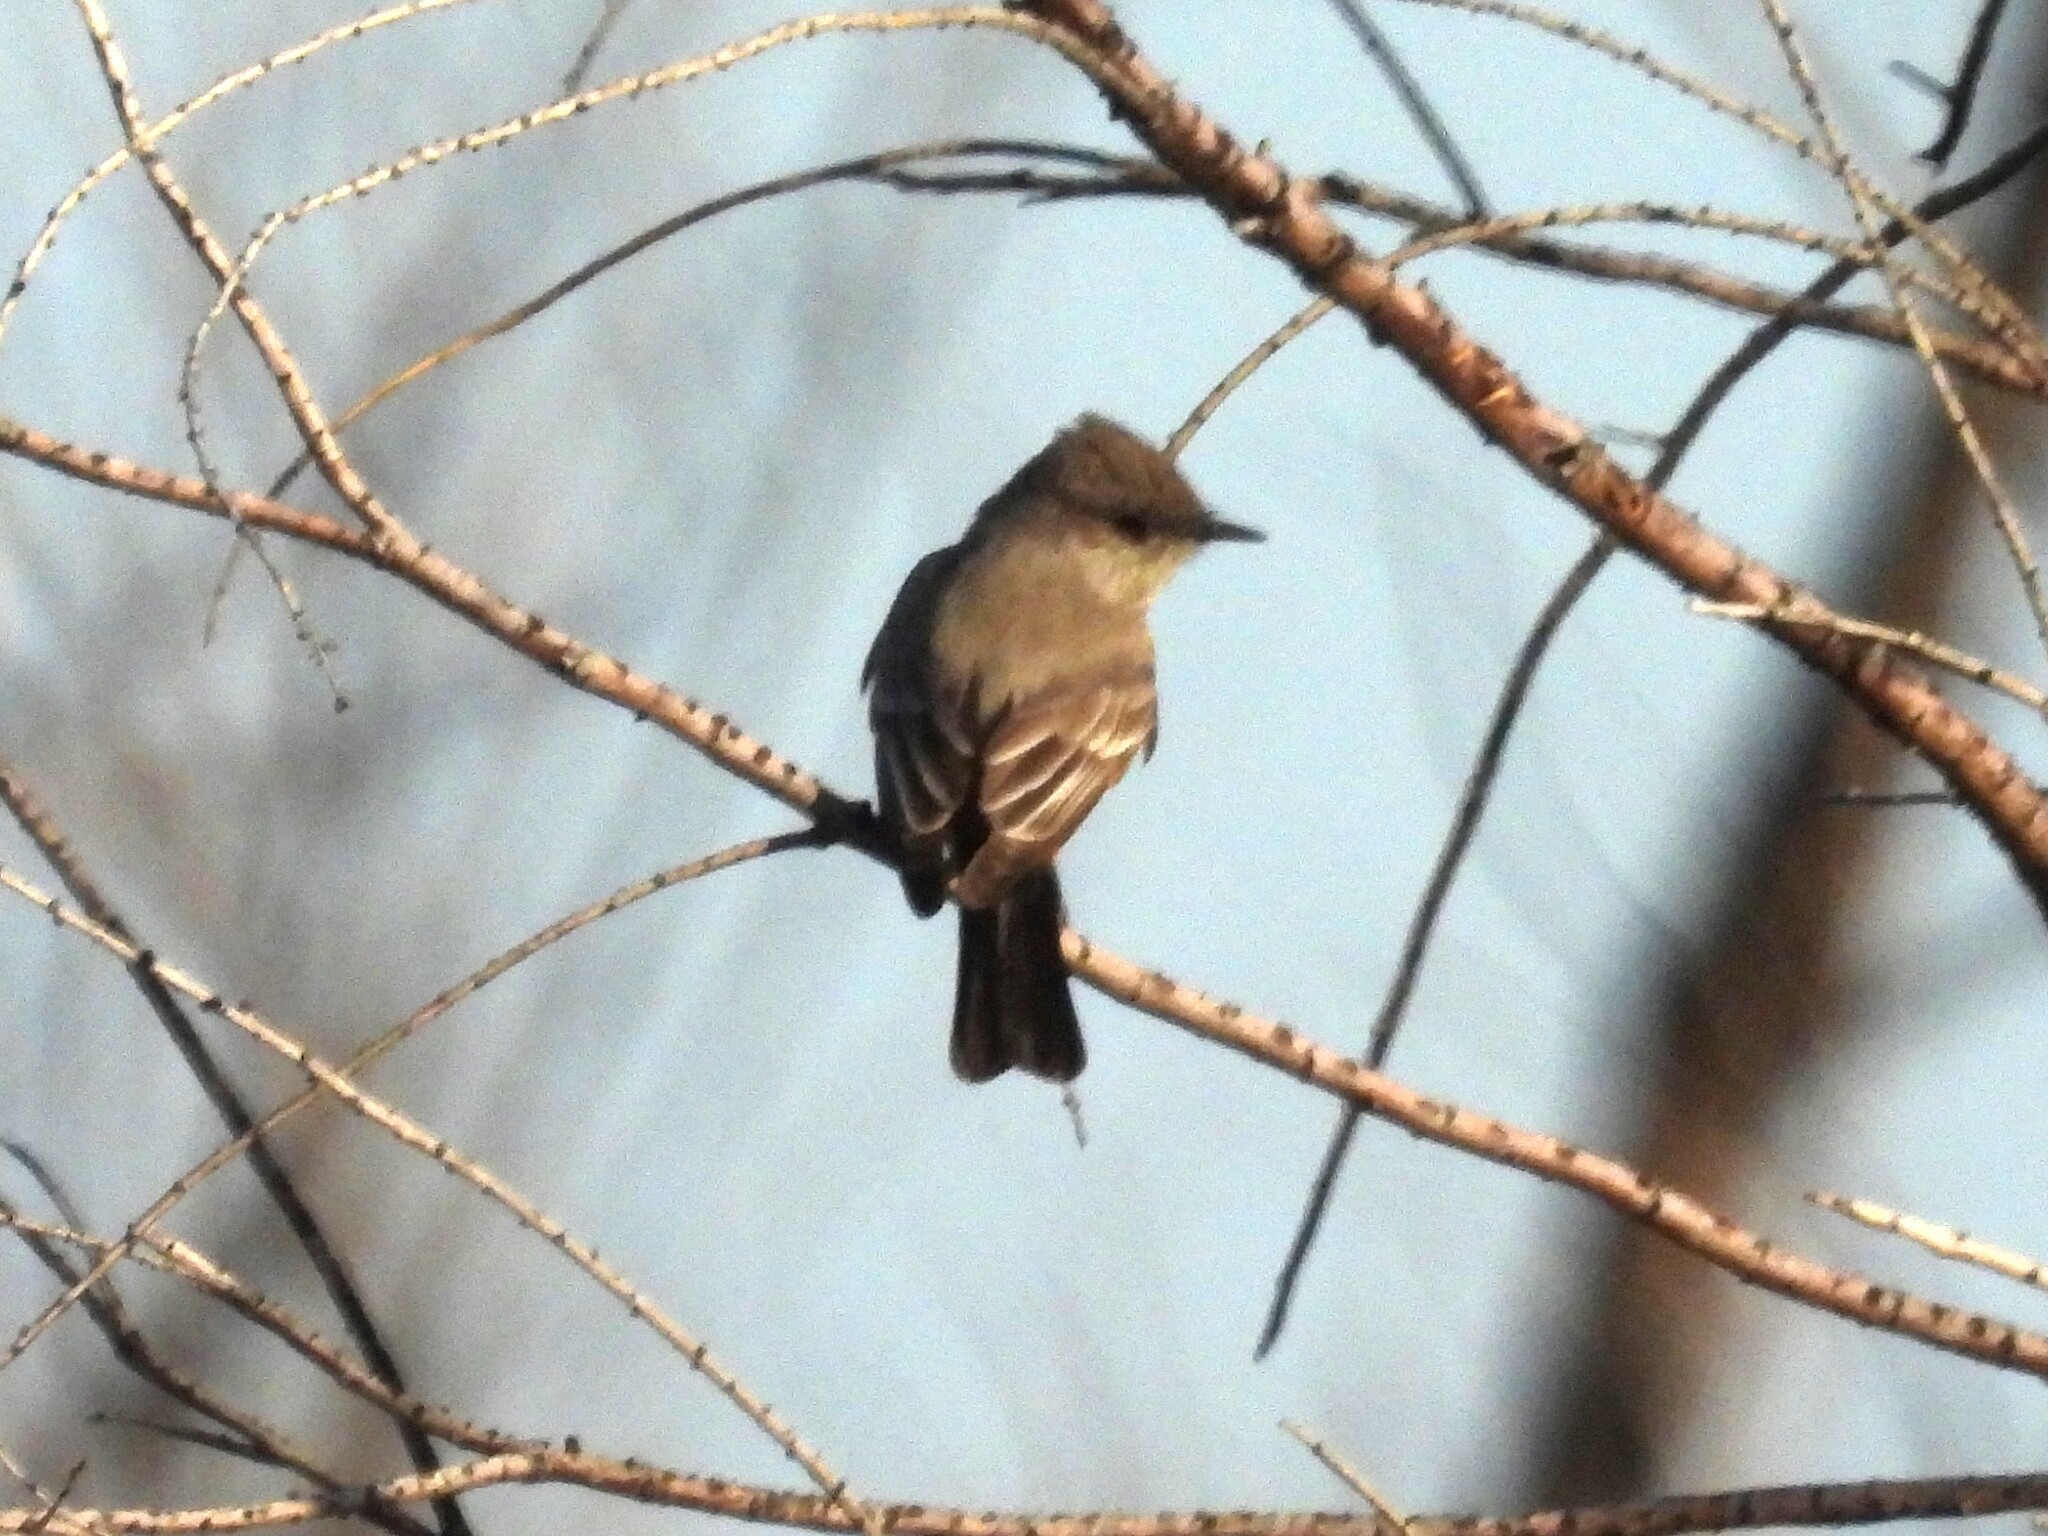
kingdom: Animalia
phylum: Chordata
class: Aves
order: Passeriformes
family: Tyrannidae
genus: Sayornis
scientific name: Sayornis saya
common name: Say's phoebe
